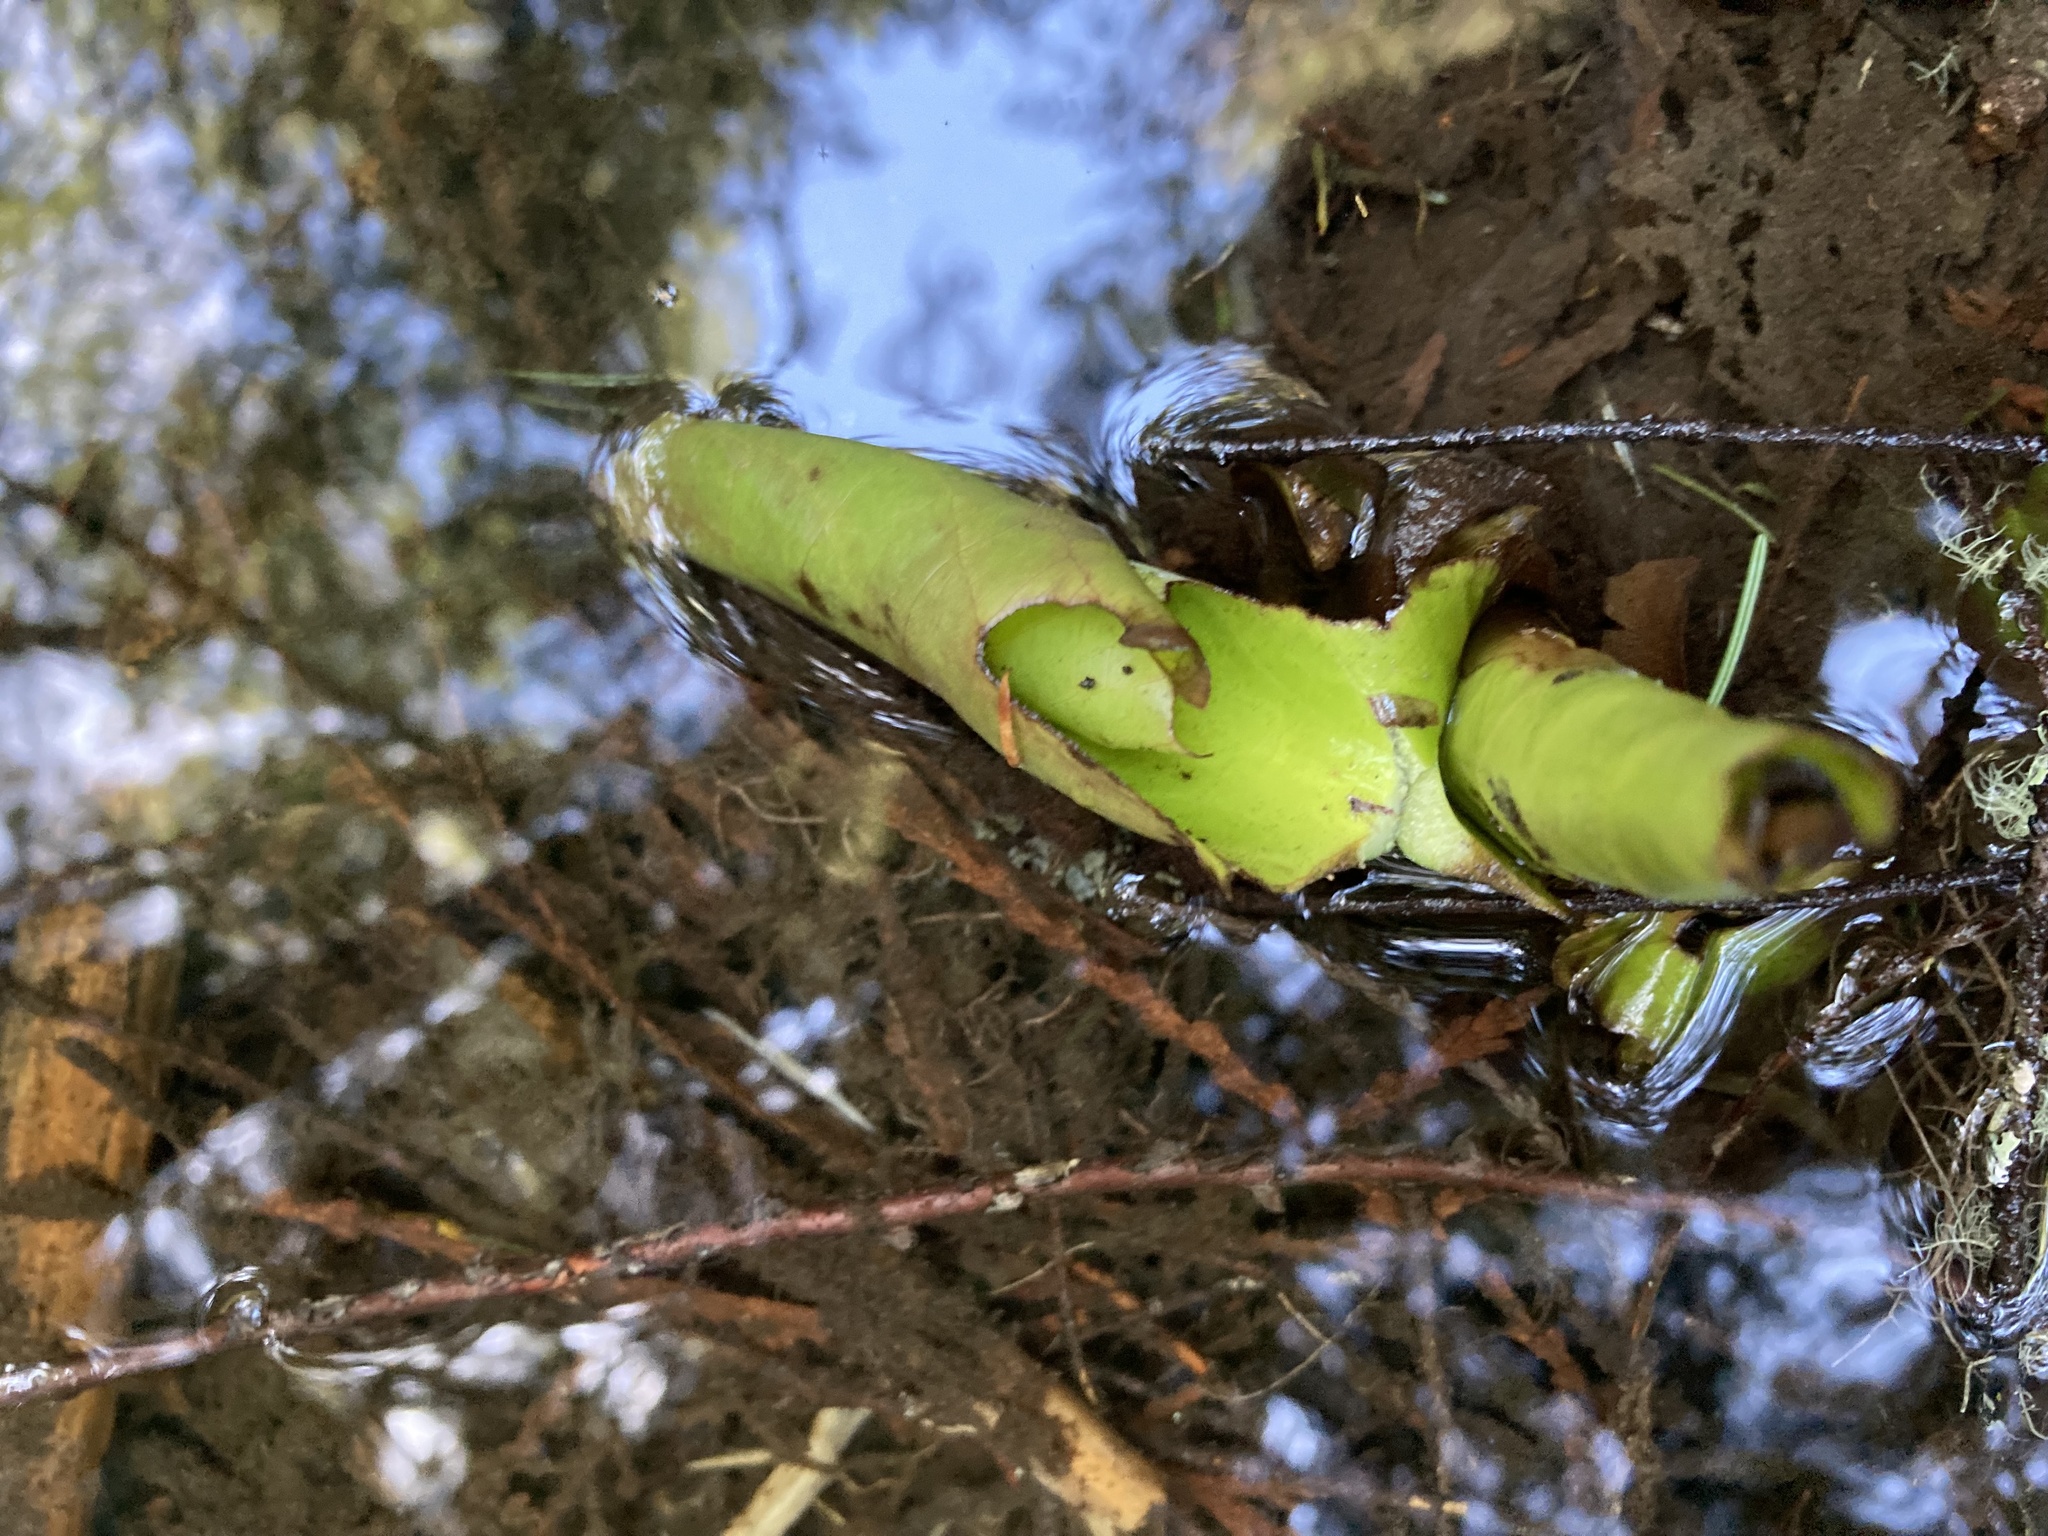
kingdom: Plantae
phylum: Tracheophyta
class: Liliopsida
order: Alismatales
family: Araceae
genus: Lysichiton
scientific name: Lysichiton americanus
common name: American skunk cabbage
